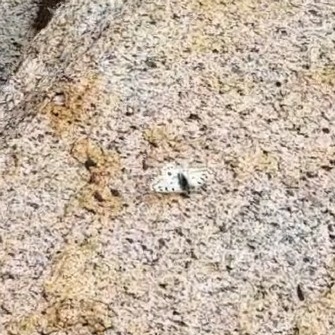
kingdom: Animalia
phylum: Arthropoda
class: Insecta
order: Lepidoptera
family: Papilionidae
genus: Parnassius
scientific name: Parnassius smintheus
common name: Mountain parnassian
